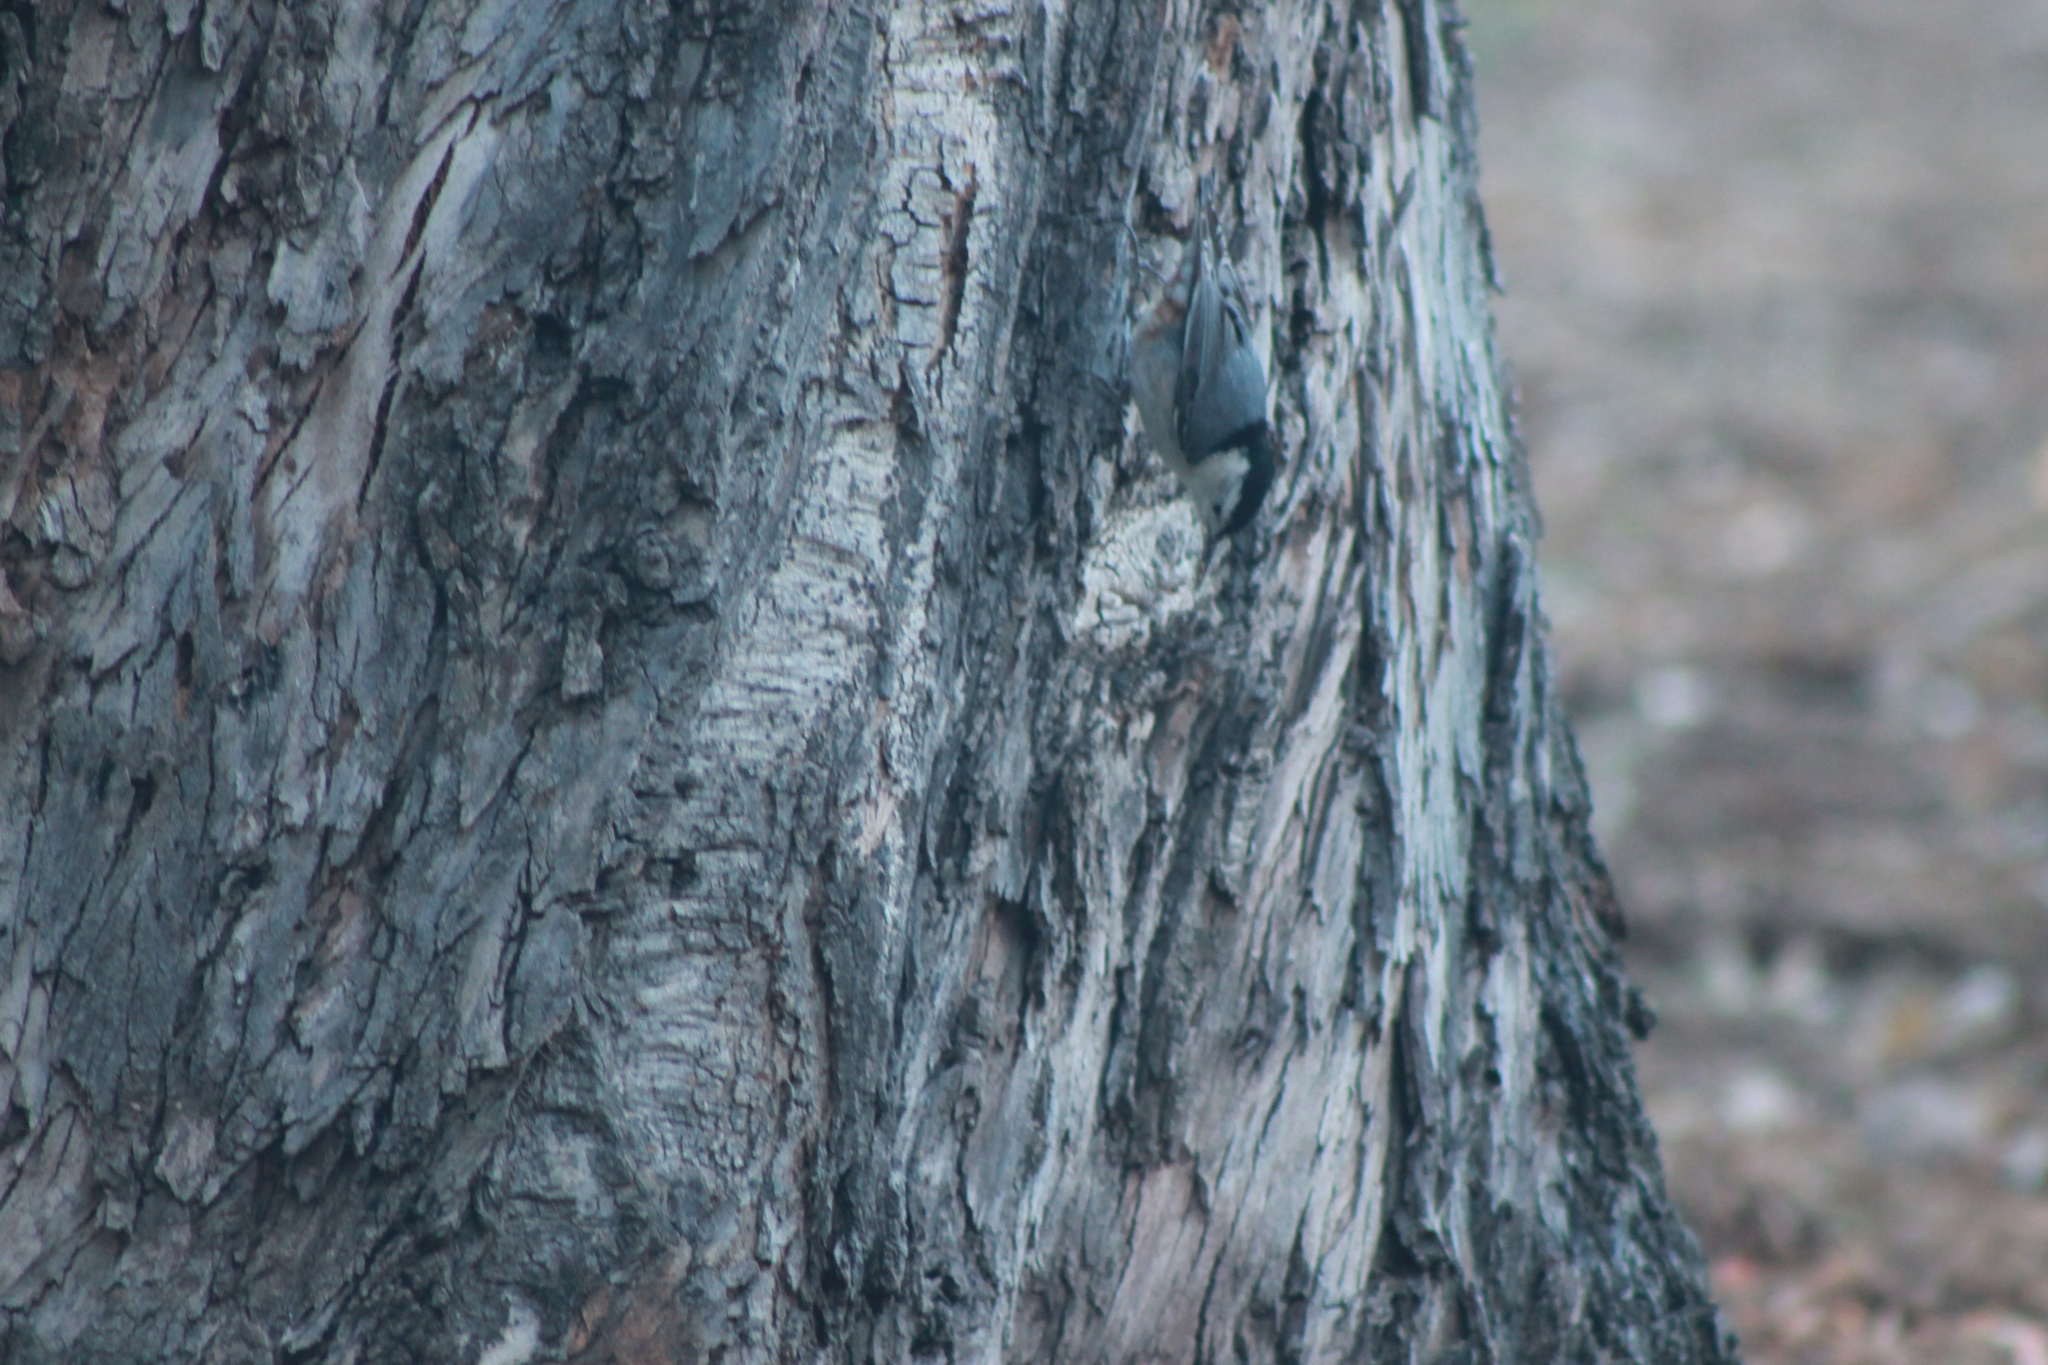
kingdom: Animalia
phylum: Chordata
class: Aves
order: Passeriformes
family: Sittidae
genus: Sitta
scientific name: Sitta carolinensis
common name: White-breasted nuthatch
